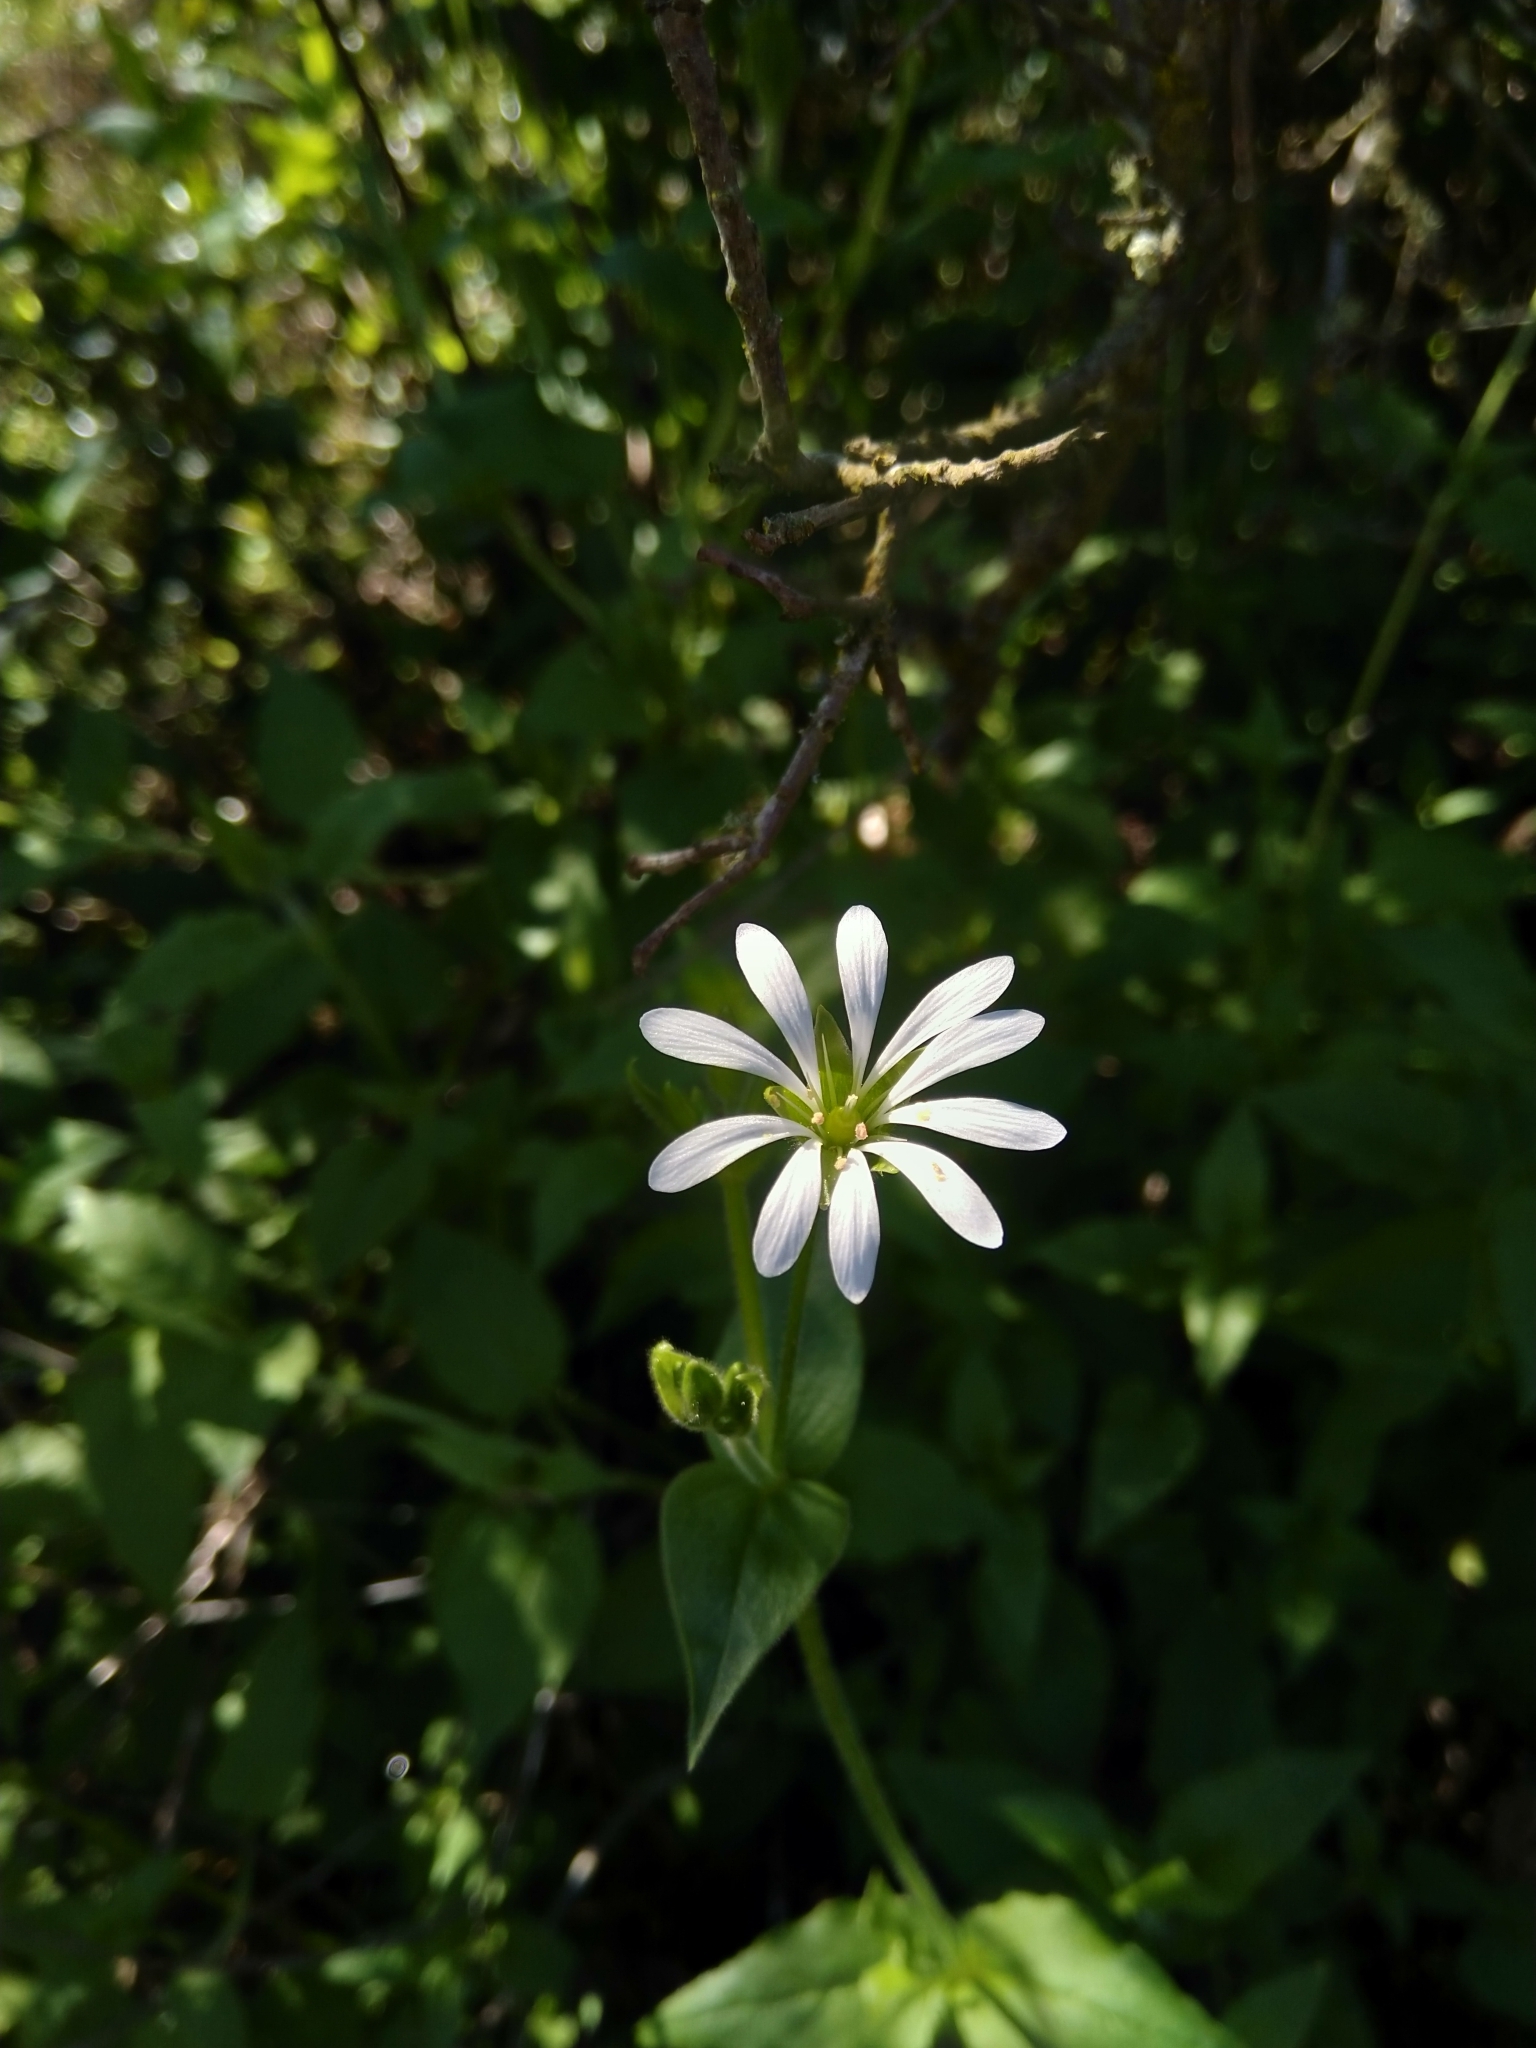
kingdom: Plantae
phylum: Tracheophyta
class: Magnoliopsida
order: Caryophyllales
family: Caryophyllaceae
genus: Stellaria
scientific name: Stellaria chilensis
